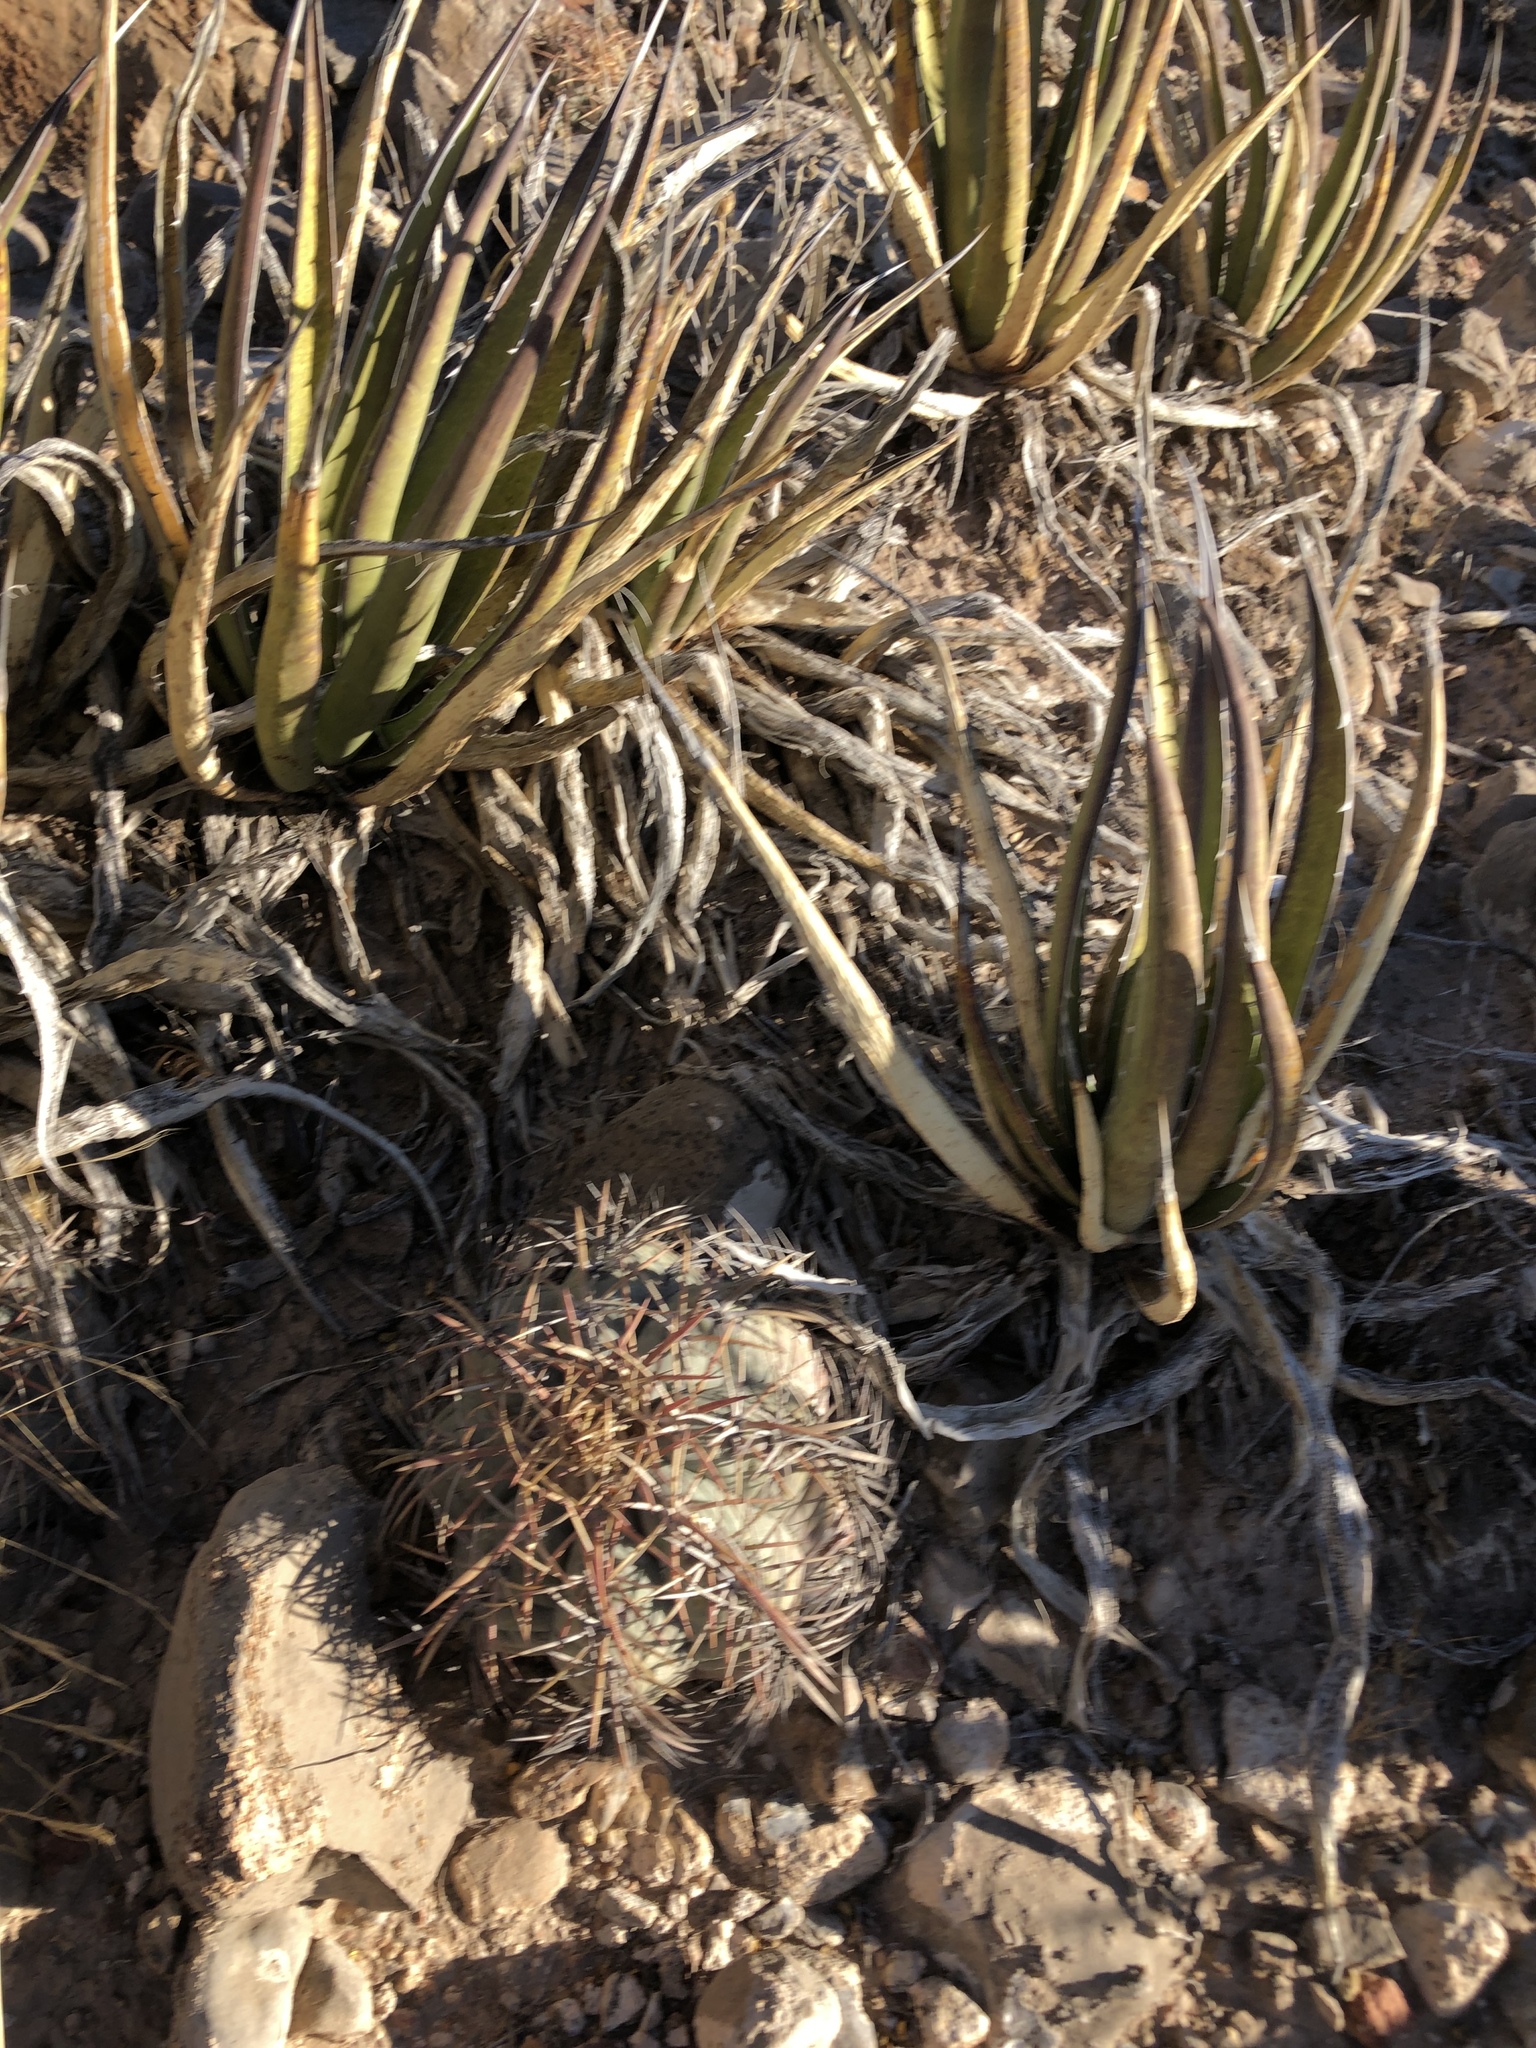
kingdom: Plantae
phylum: Tracheophyta
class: Magnoliopsida
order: Caryophyllales
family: Cactaceae
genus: Echinocactus
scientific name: Echinocactus horizonthalonius
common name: Devilshead
